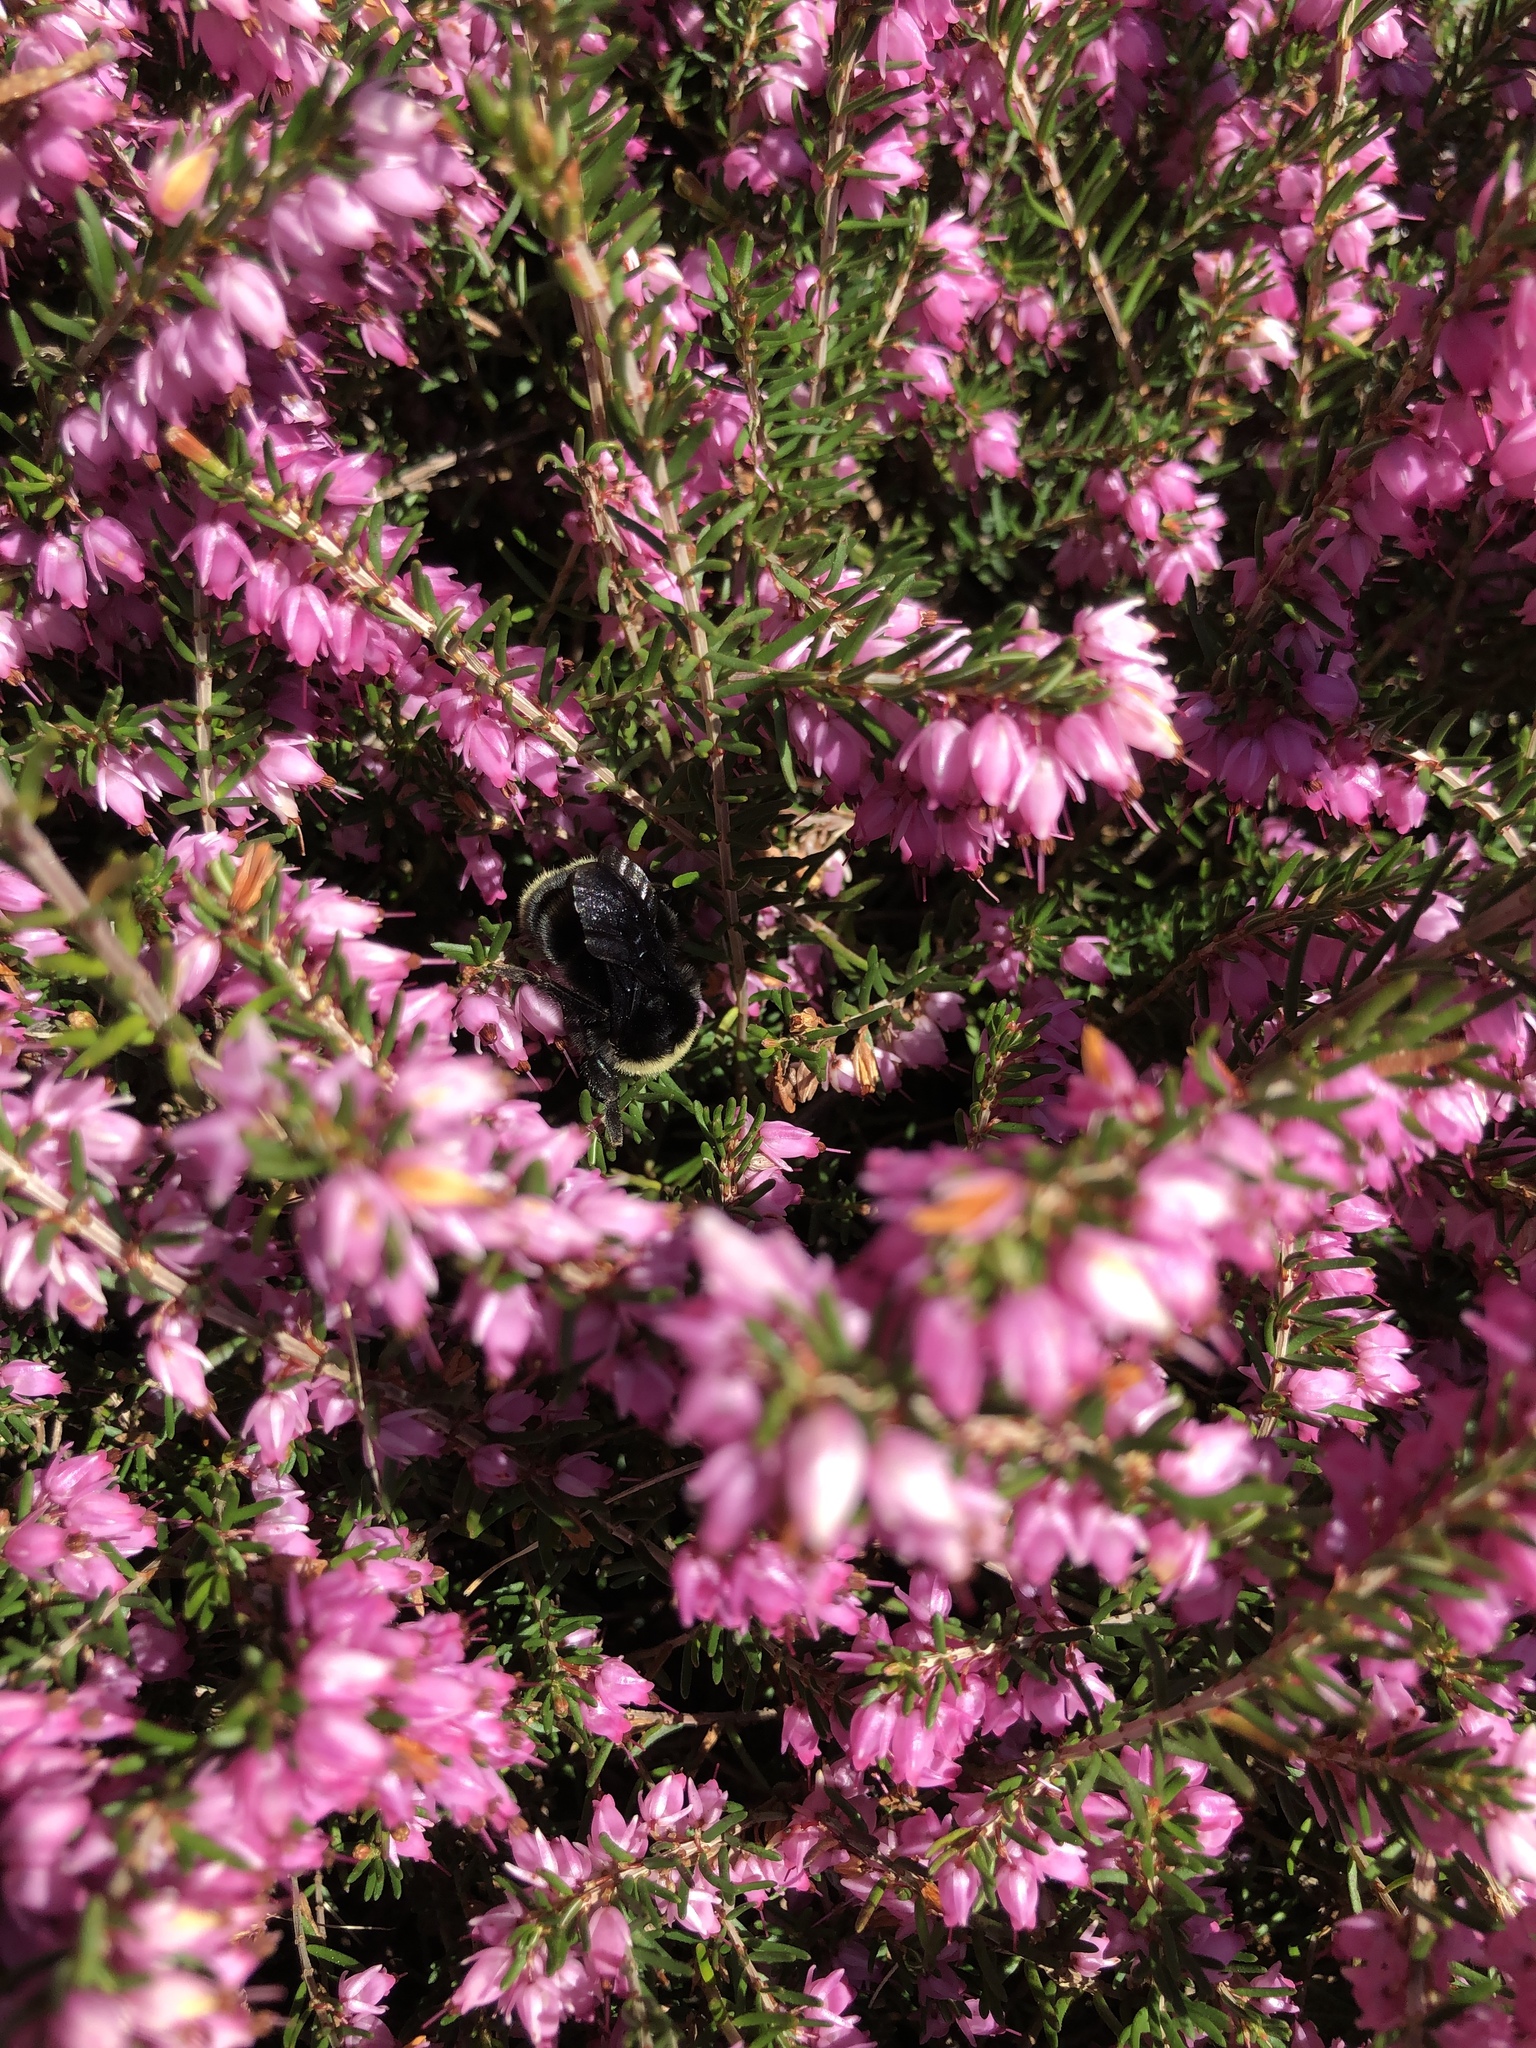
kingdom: Animalia
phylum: Arthropoda
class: Insecta
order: Hymenoptera
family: Apidae
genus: Bombus
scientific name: Bombus vosnesenskii
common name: Vosnesensky bumble bee
